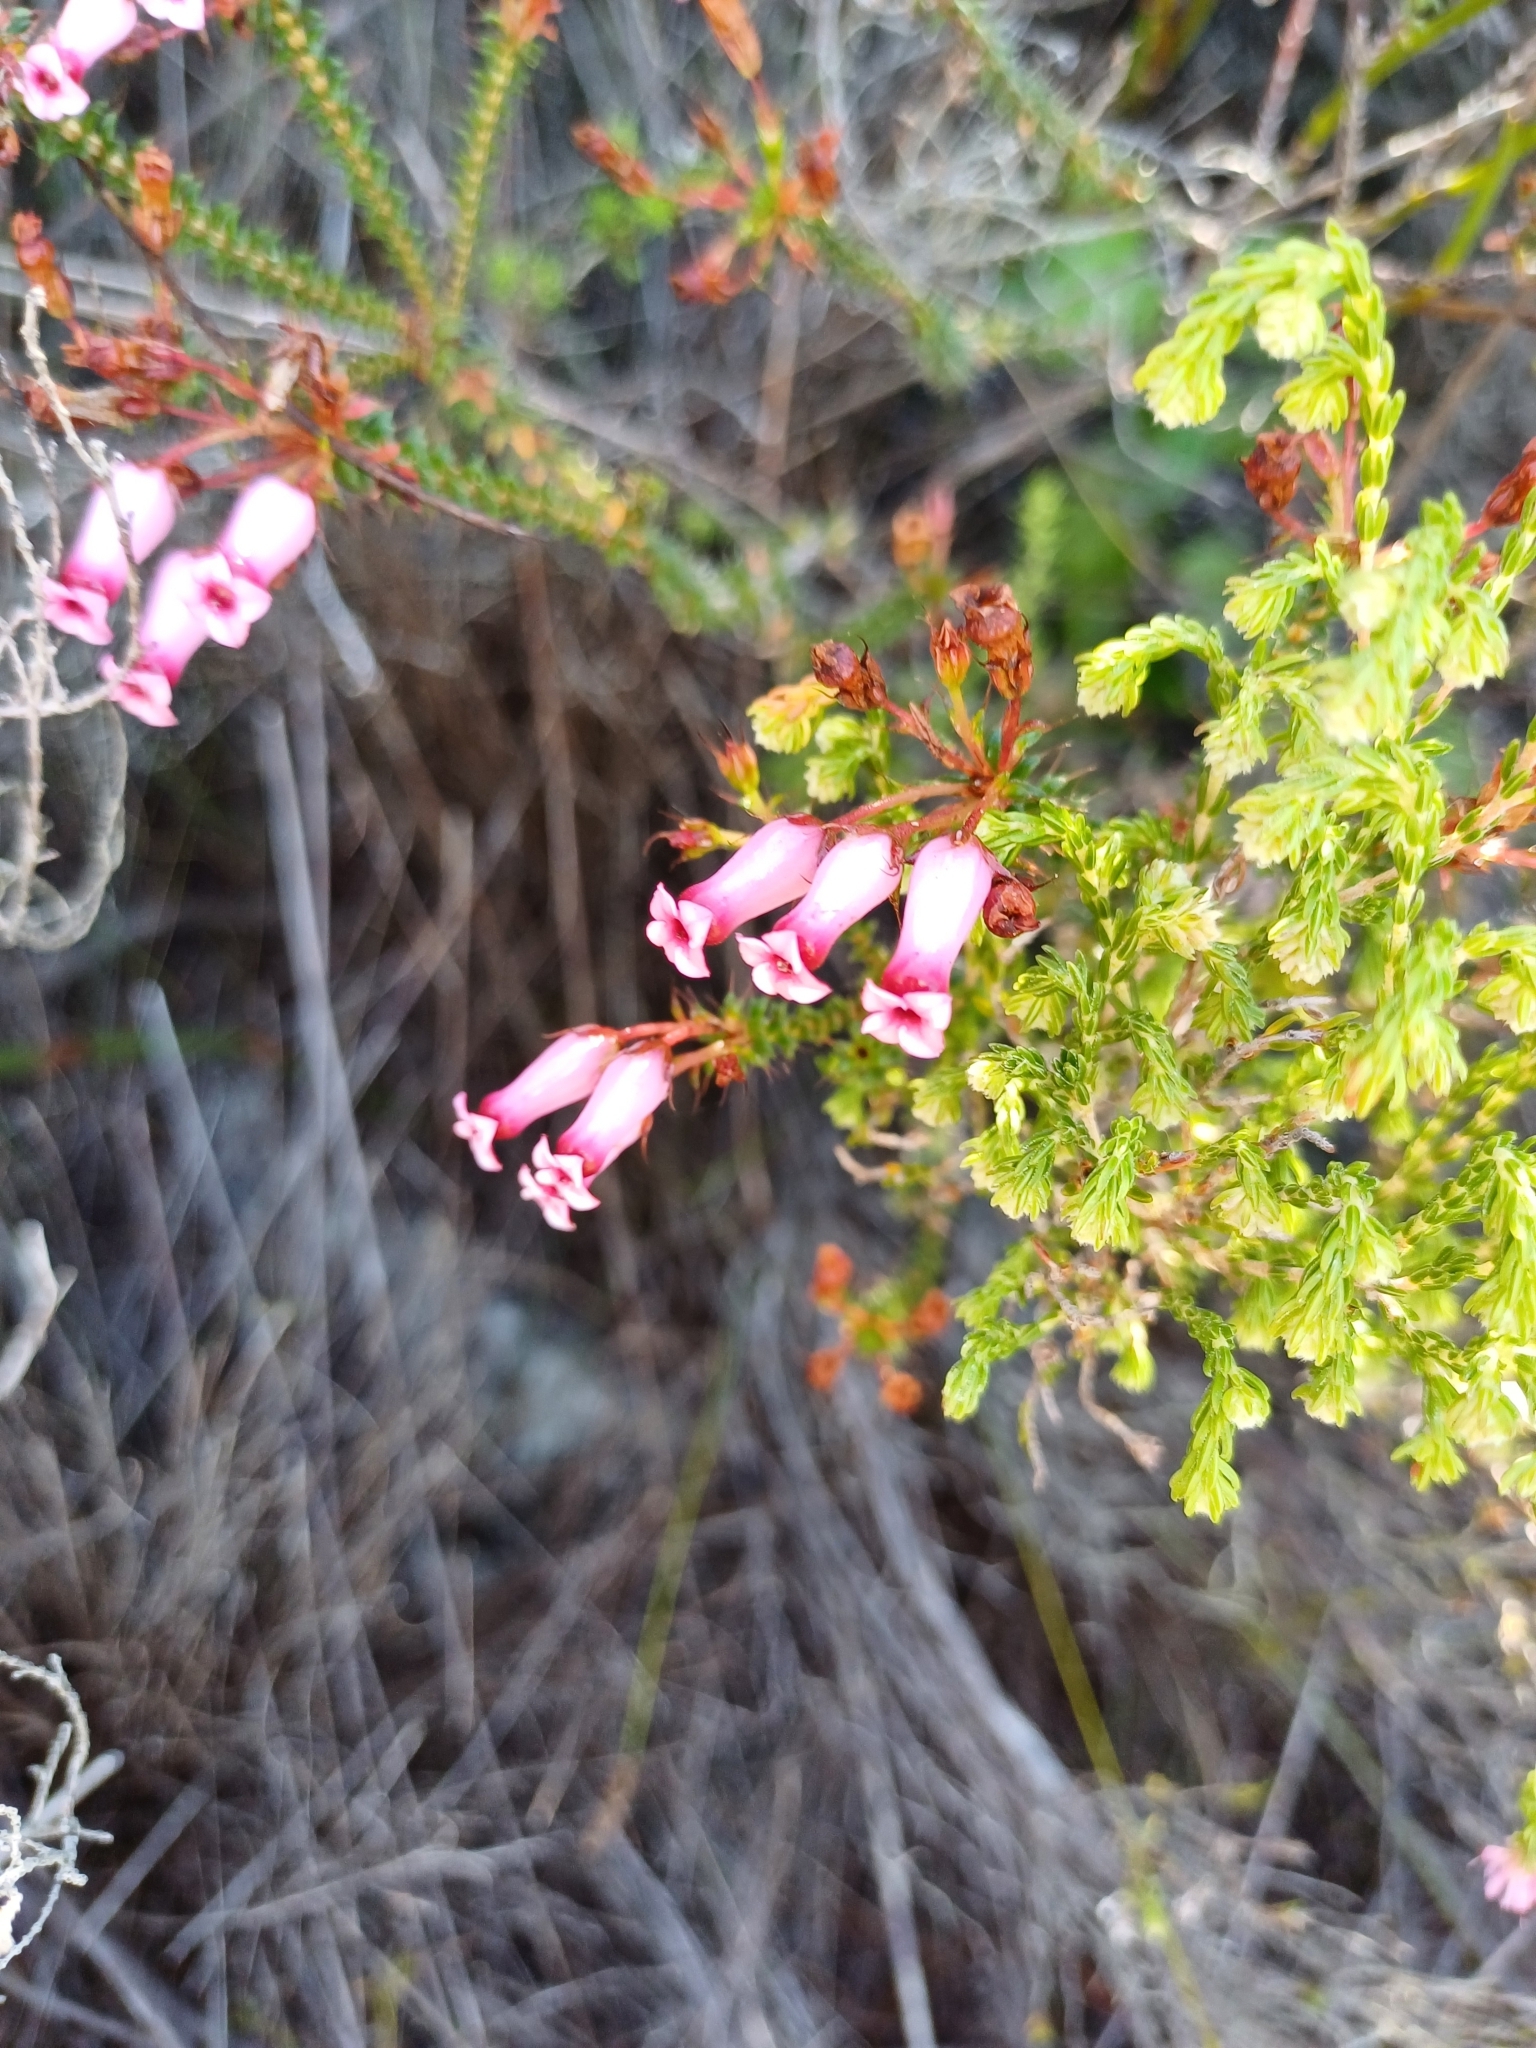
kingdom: Plantae
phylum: Tracheophyta
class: Magnoliopsida
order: Ericales
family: Ericaceae
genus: Erica
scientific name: Erica retorta
